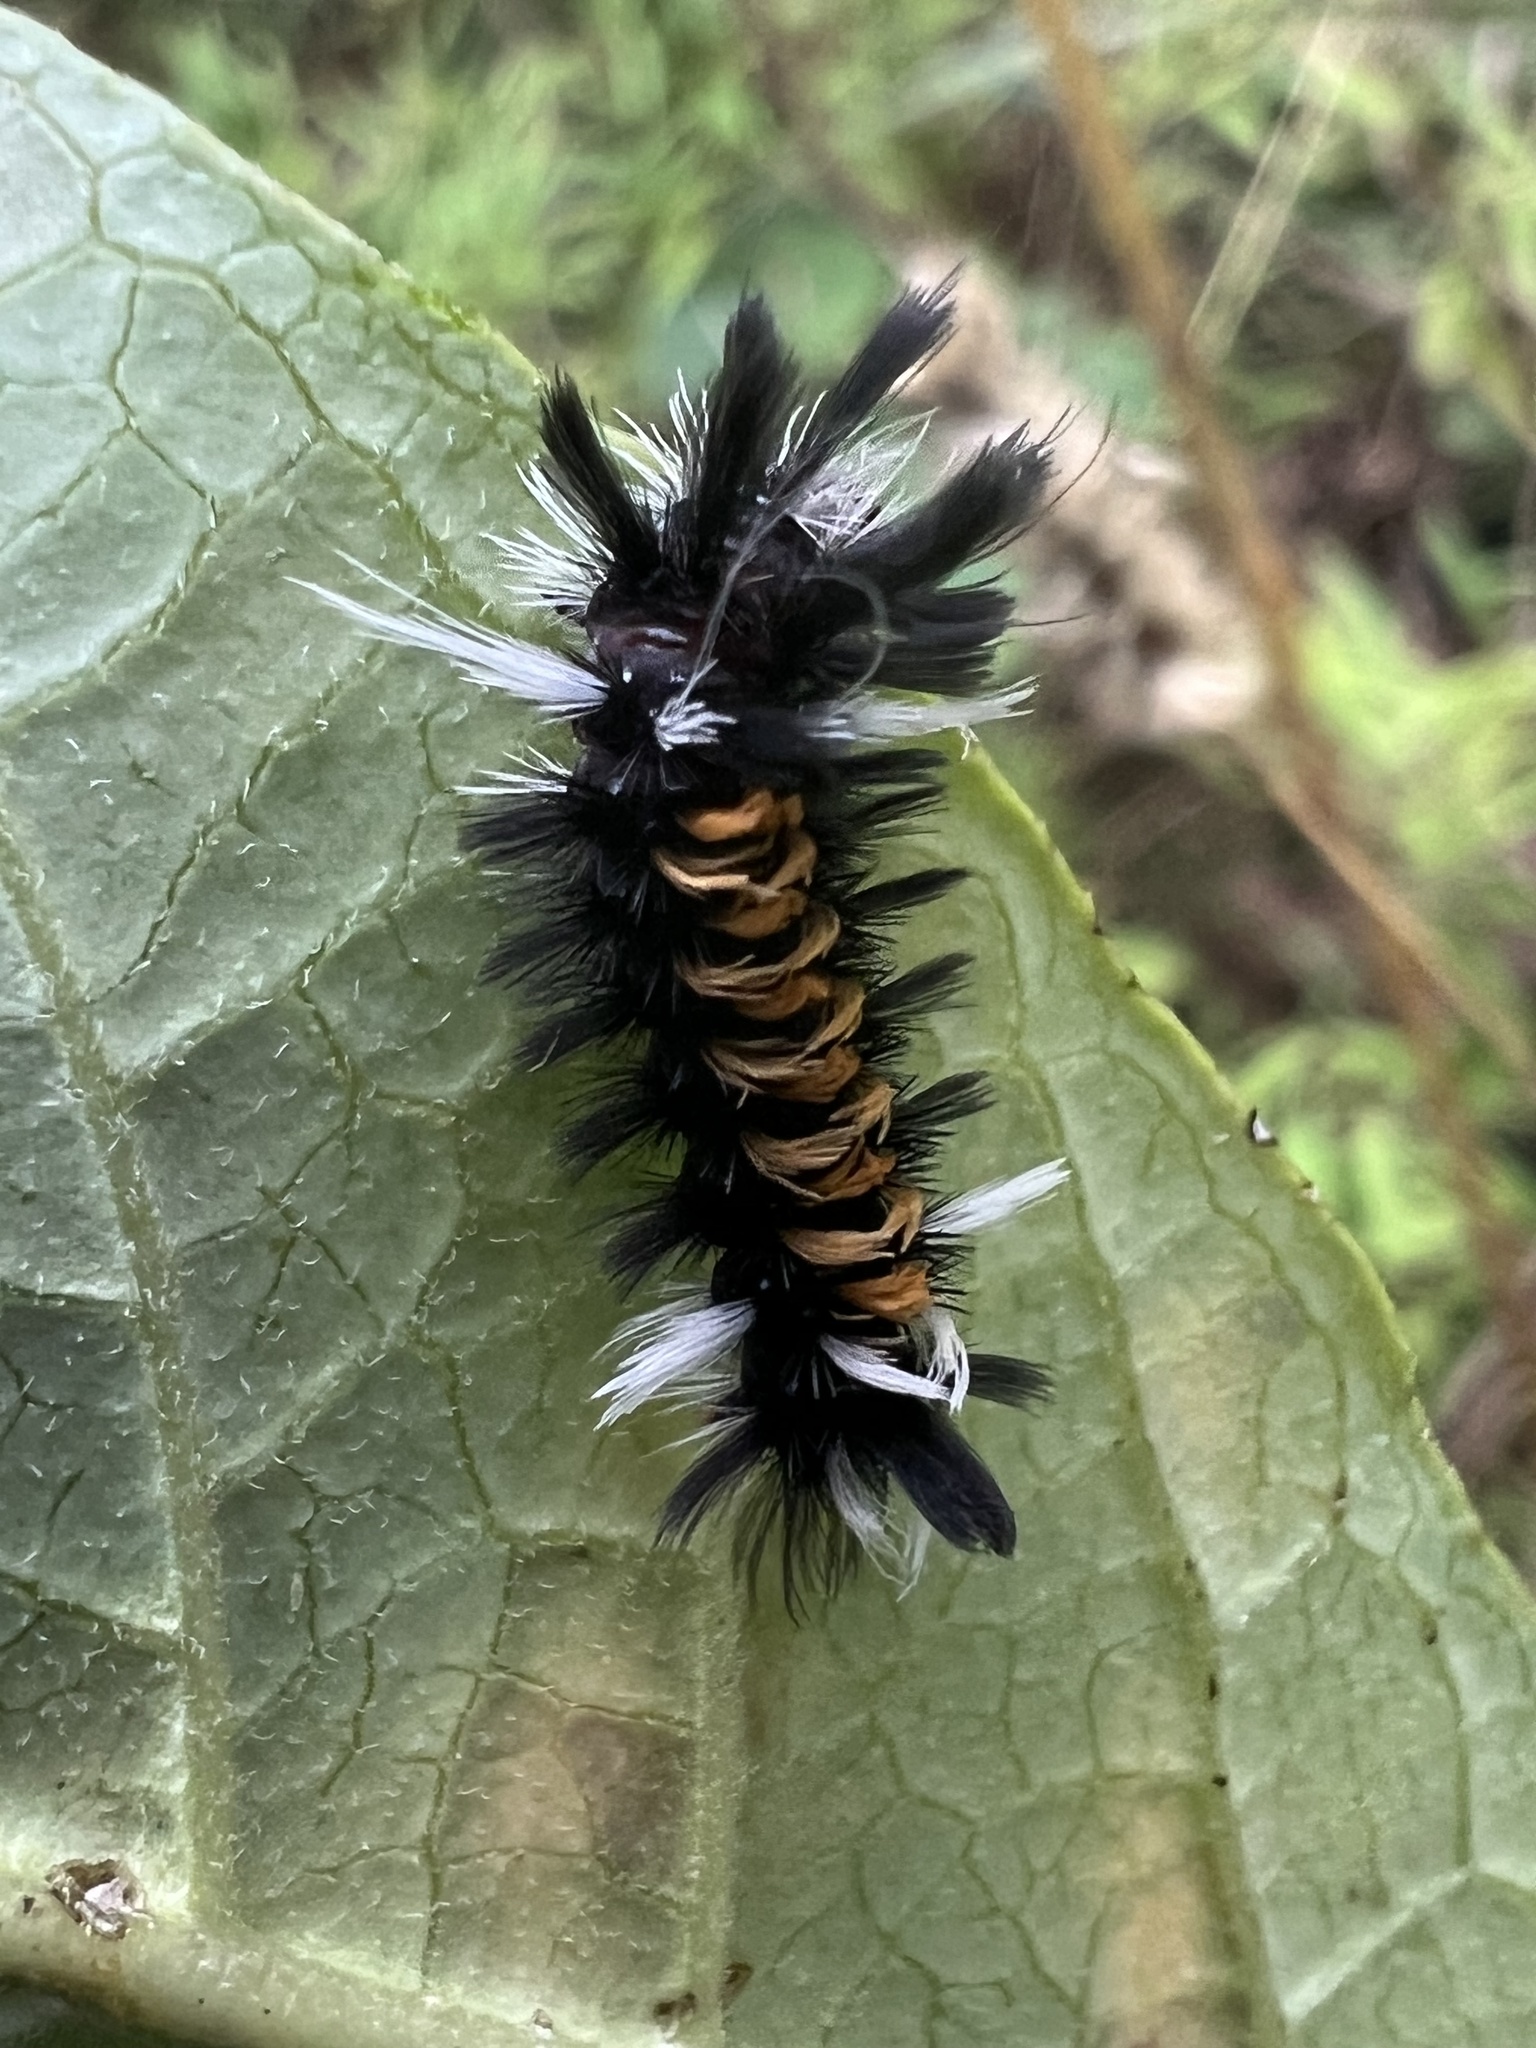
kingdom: Animalia
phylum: Arthropoda
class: Insecta
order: Lepidoptera
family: Erebidae
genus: Euchaetes
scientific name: Euchaetes egle
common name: Milkweed tussock moth
